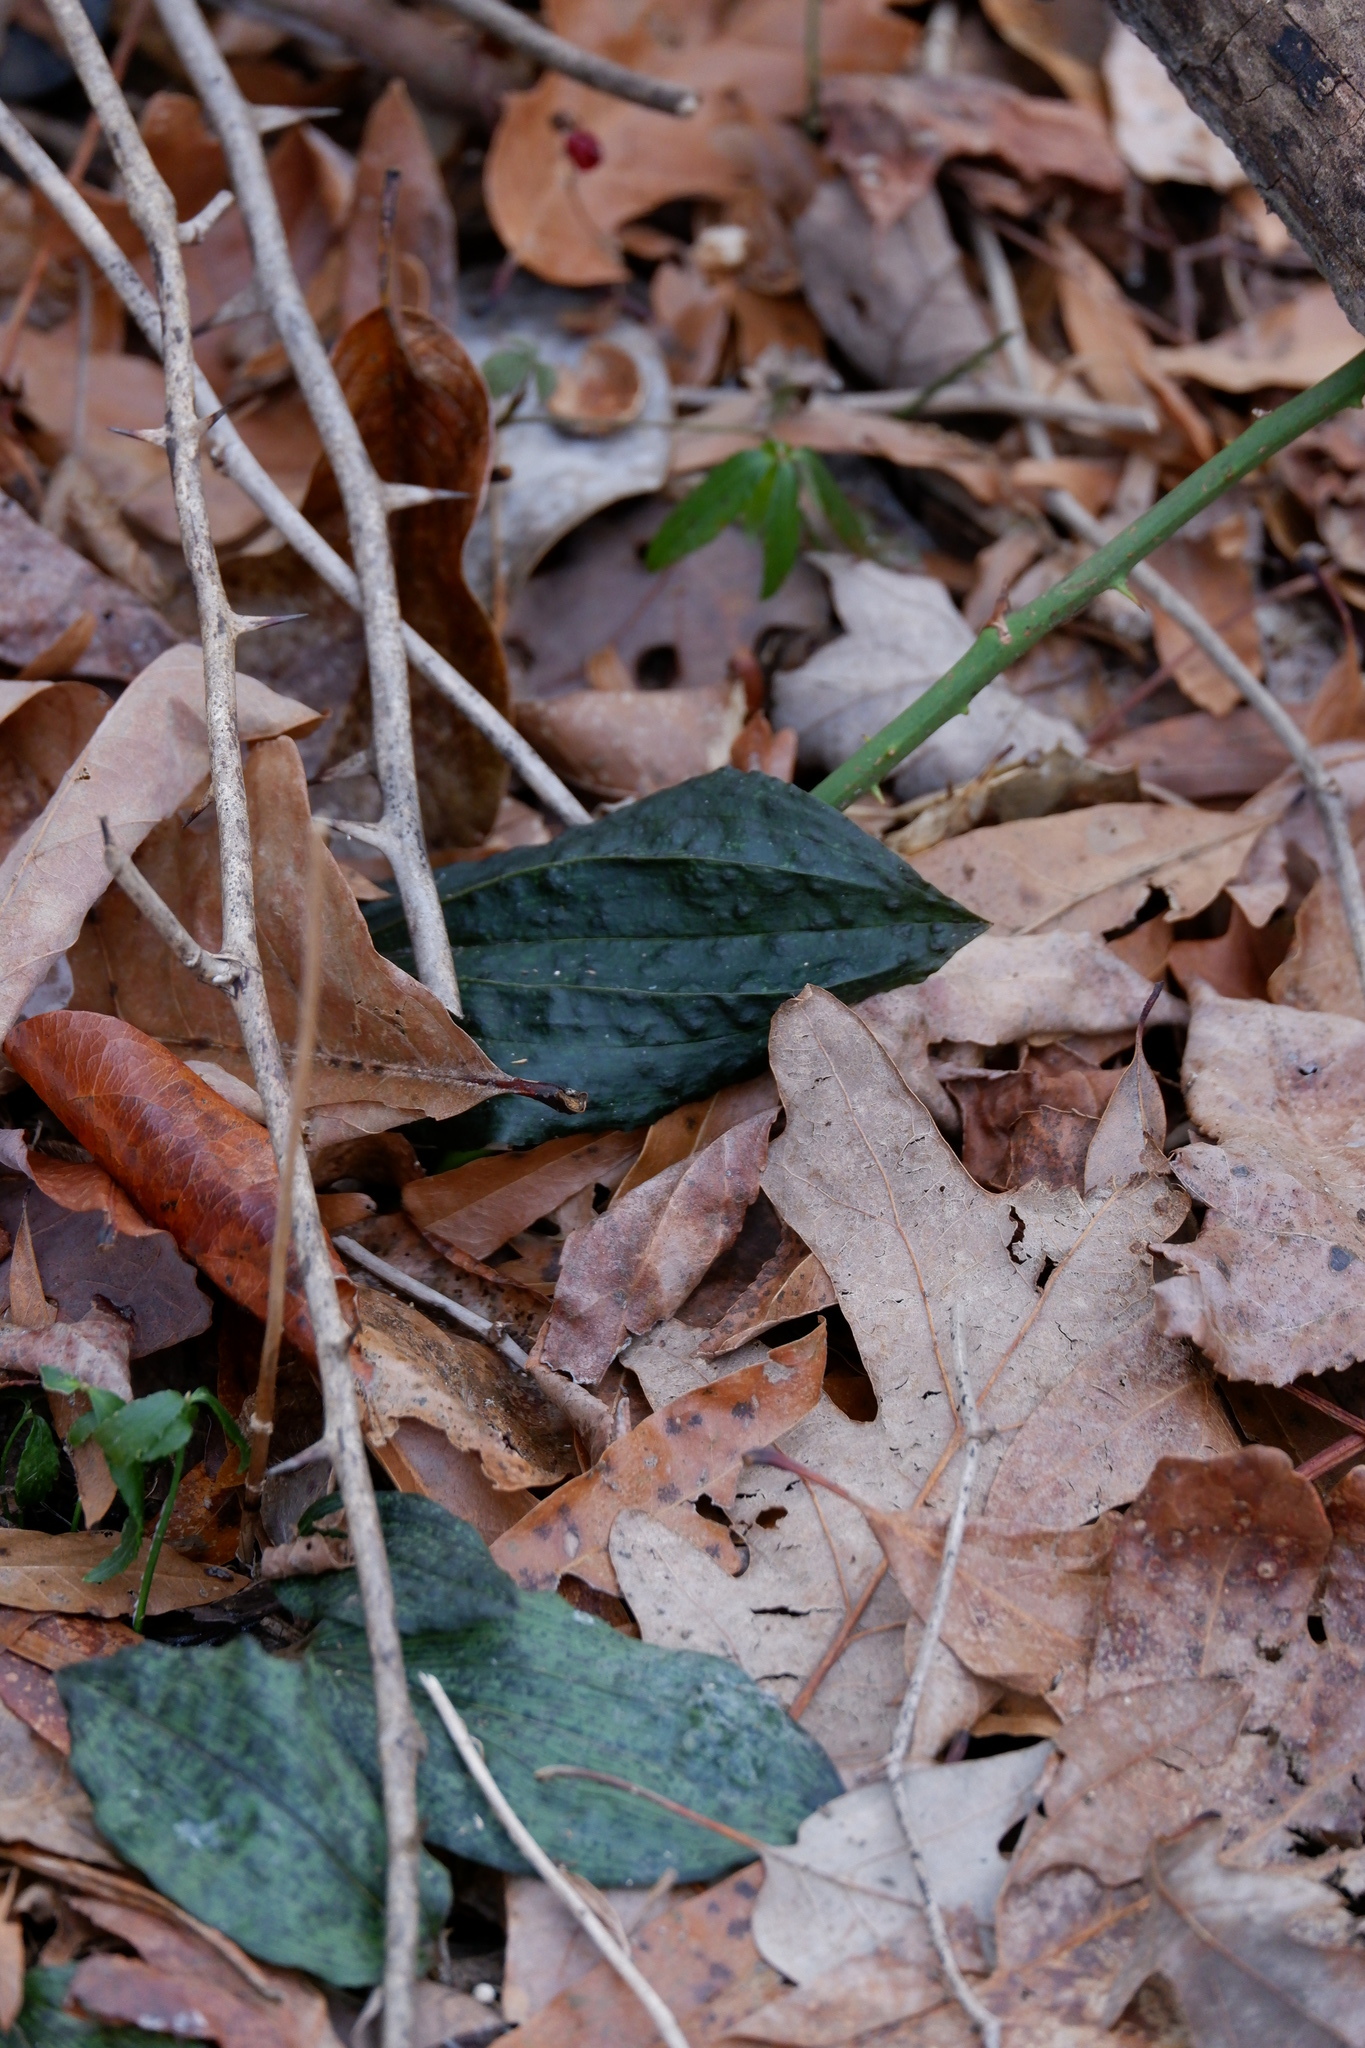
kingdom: Plantae
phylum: Tracheophyta
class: Liliopsida
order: Asparagales
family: Orchidaceae
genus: Tipularia
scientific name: Tipularia discolor
